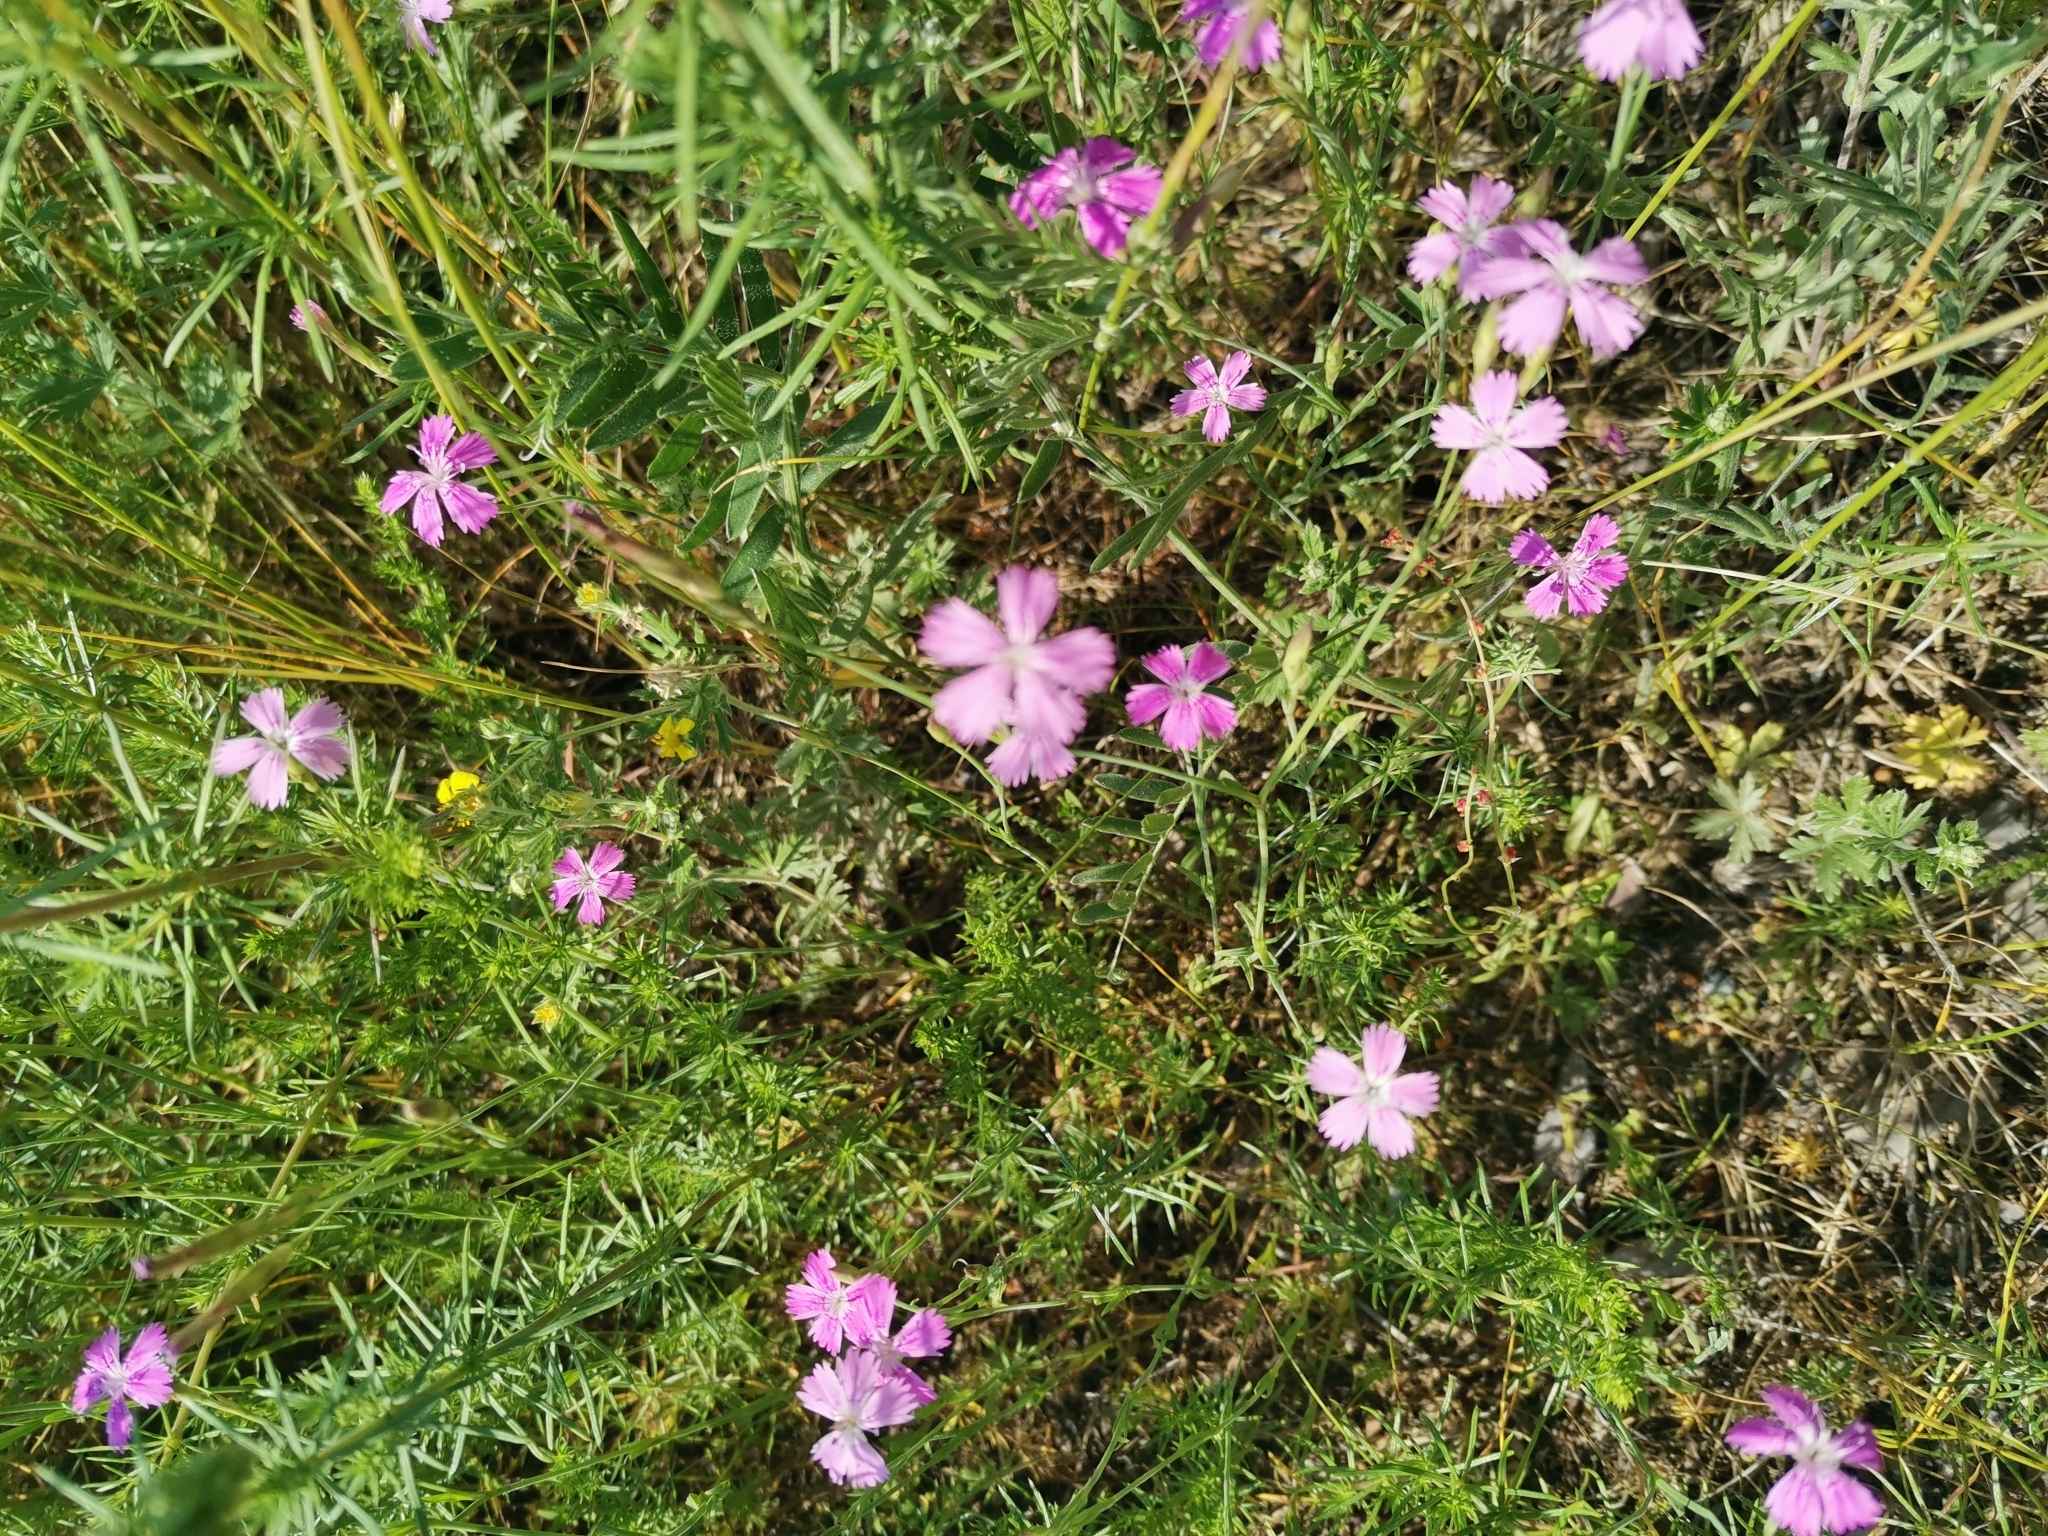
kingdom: Plantae
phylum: Tracheophyta
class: Magnoliopsida
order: Caryophyllales
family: Caryophyllaceae
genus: Dianthus
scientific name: Dianthus deltoides
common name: Maiden pink
